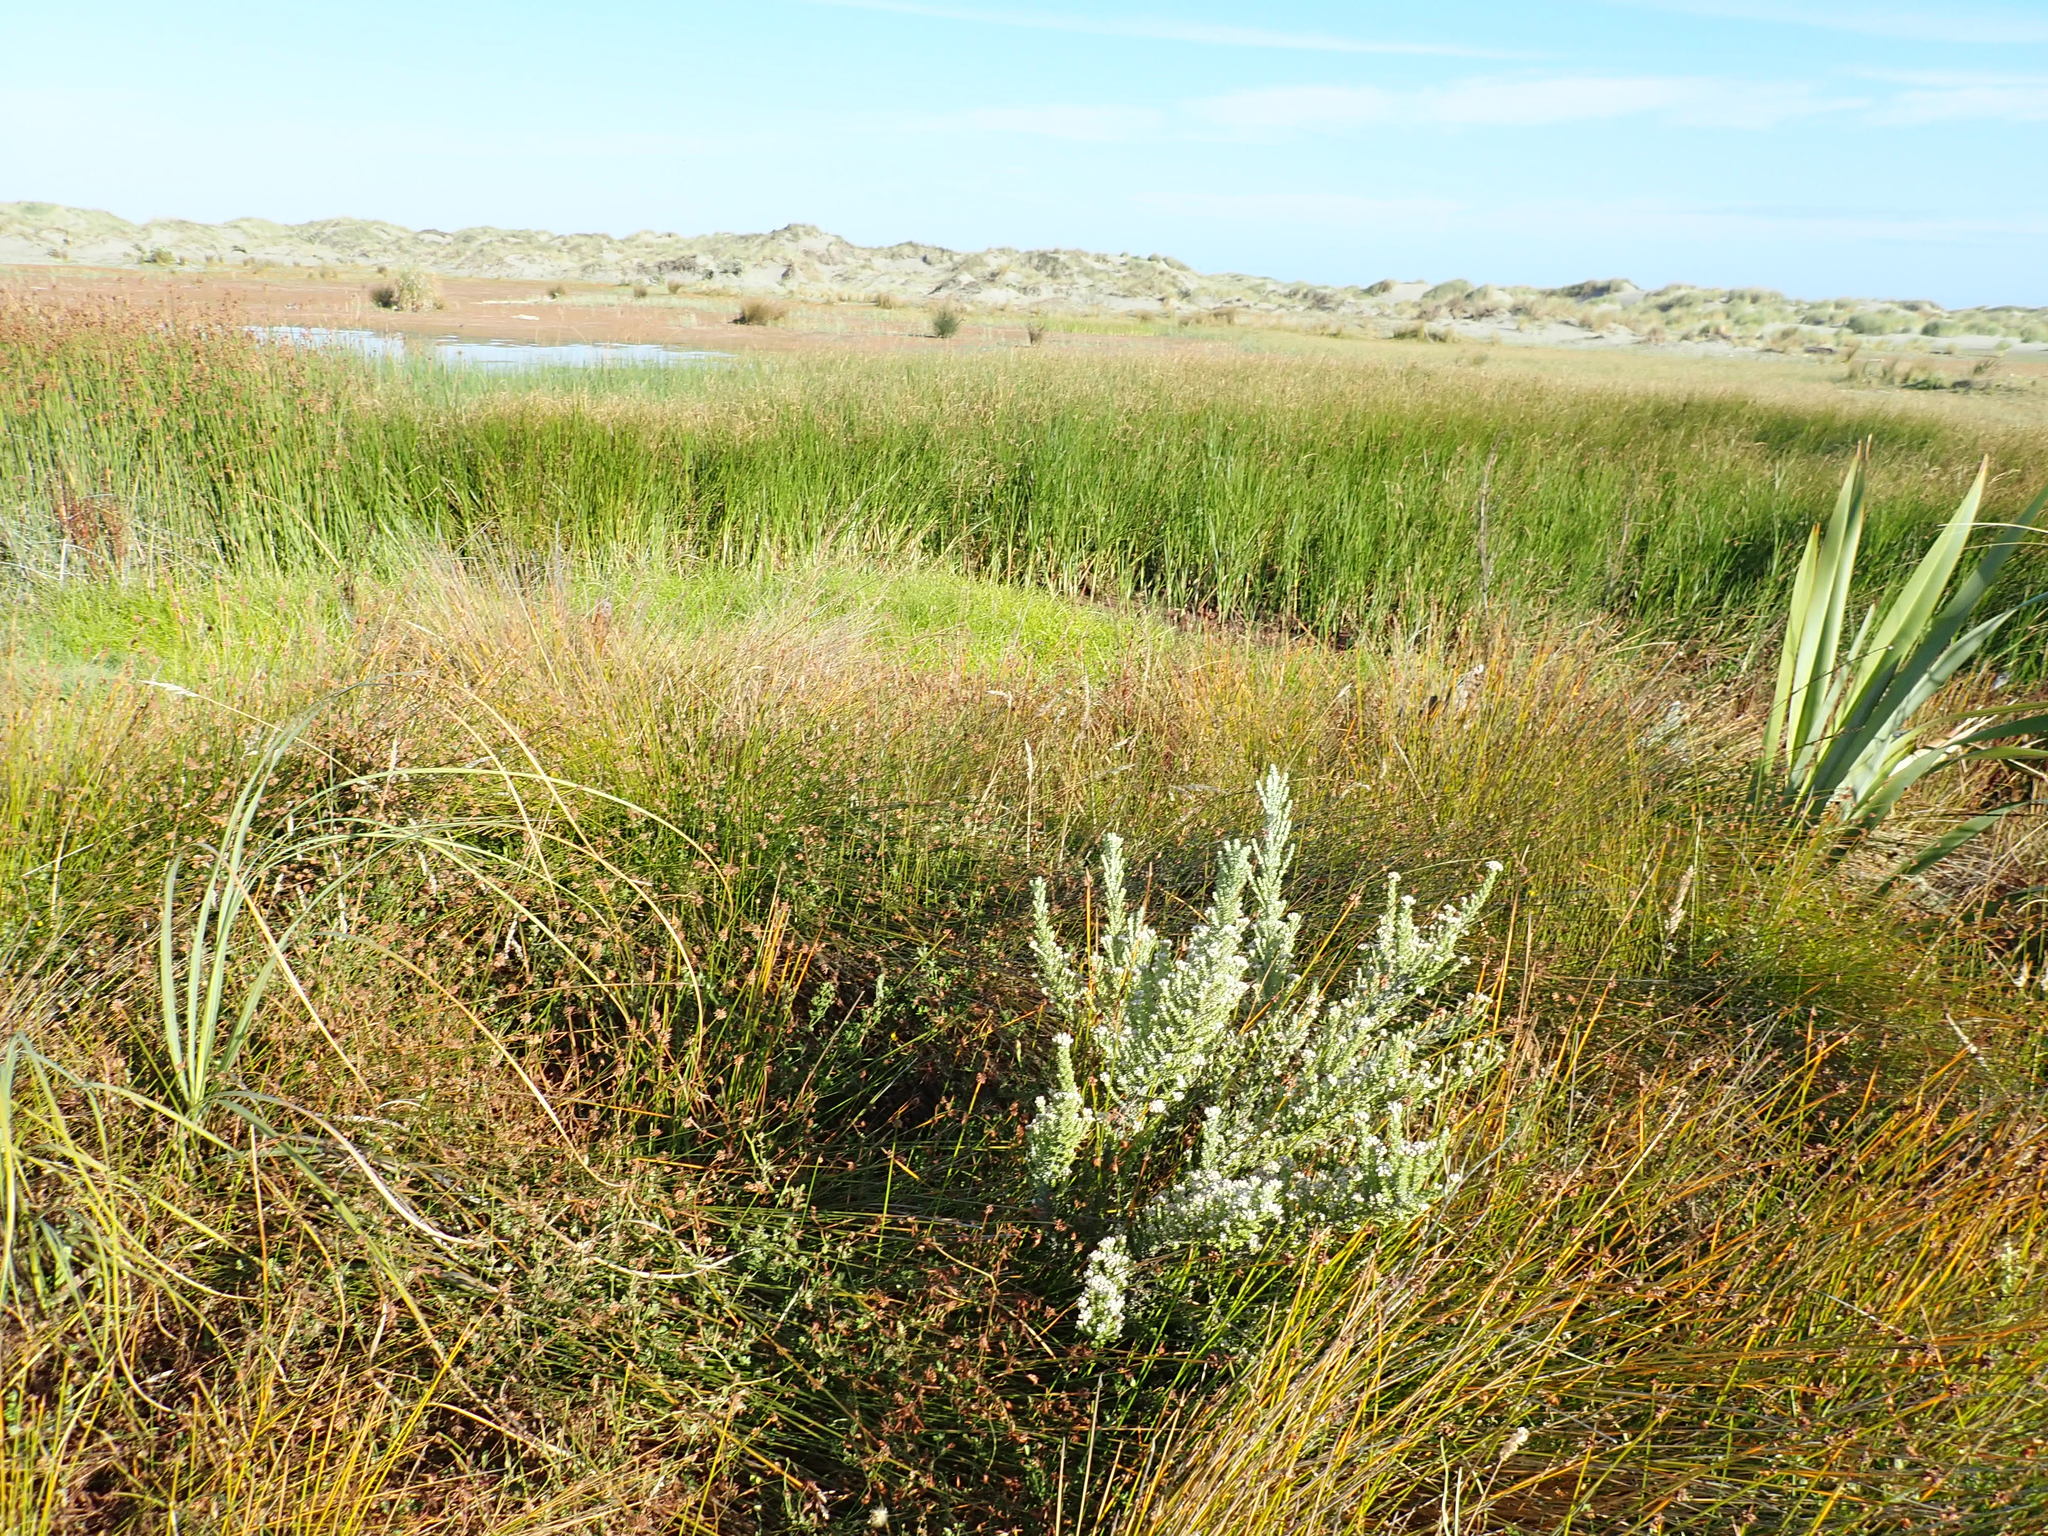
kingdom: Plantae
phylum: Tracheophyta
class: Magnoliopsida
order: Asterales
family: Asteraceae
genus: Ozothamnus
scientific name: Ozothamnus leptophyllus
